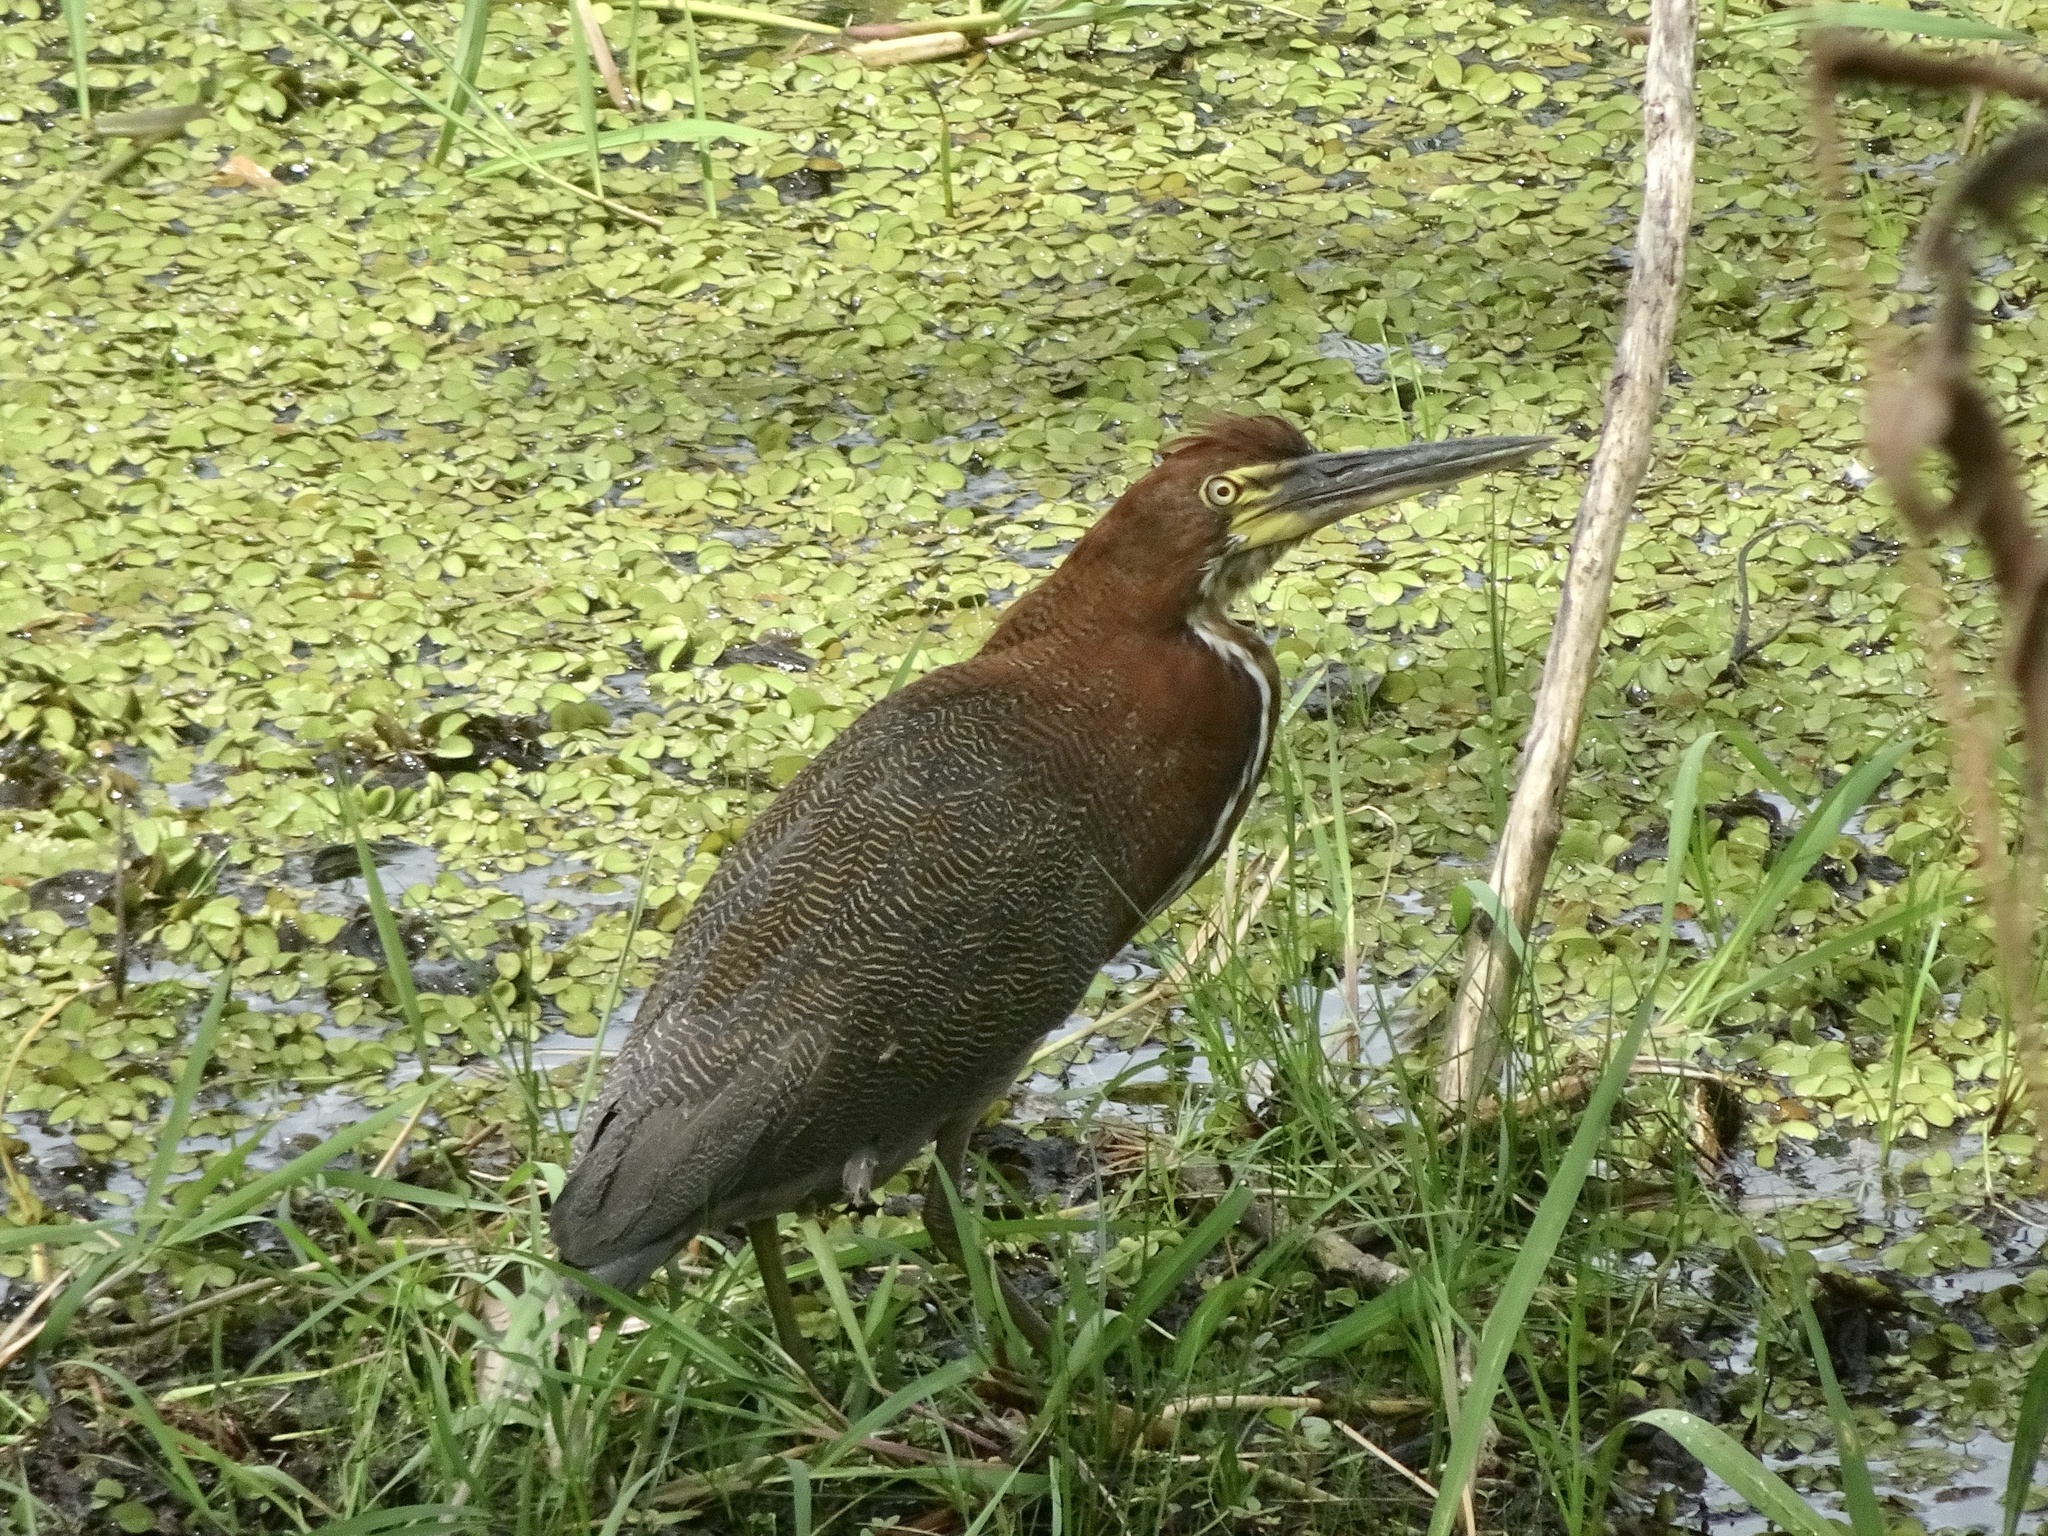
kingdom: Animalia
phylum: Chordata
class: Aves
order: Pelecaniformes
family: Ardeidae
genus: Tigrisoma
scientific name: Tigrisoma lineatum
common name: Rufescent tiger-heron
